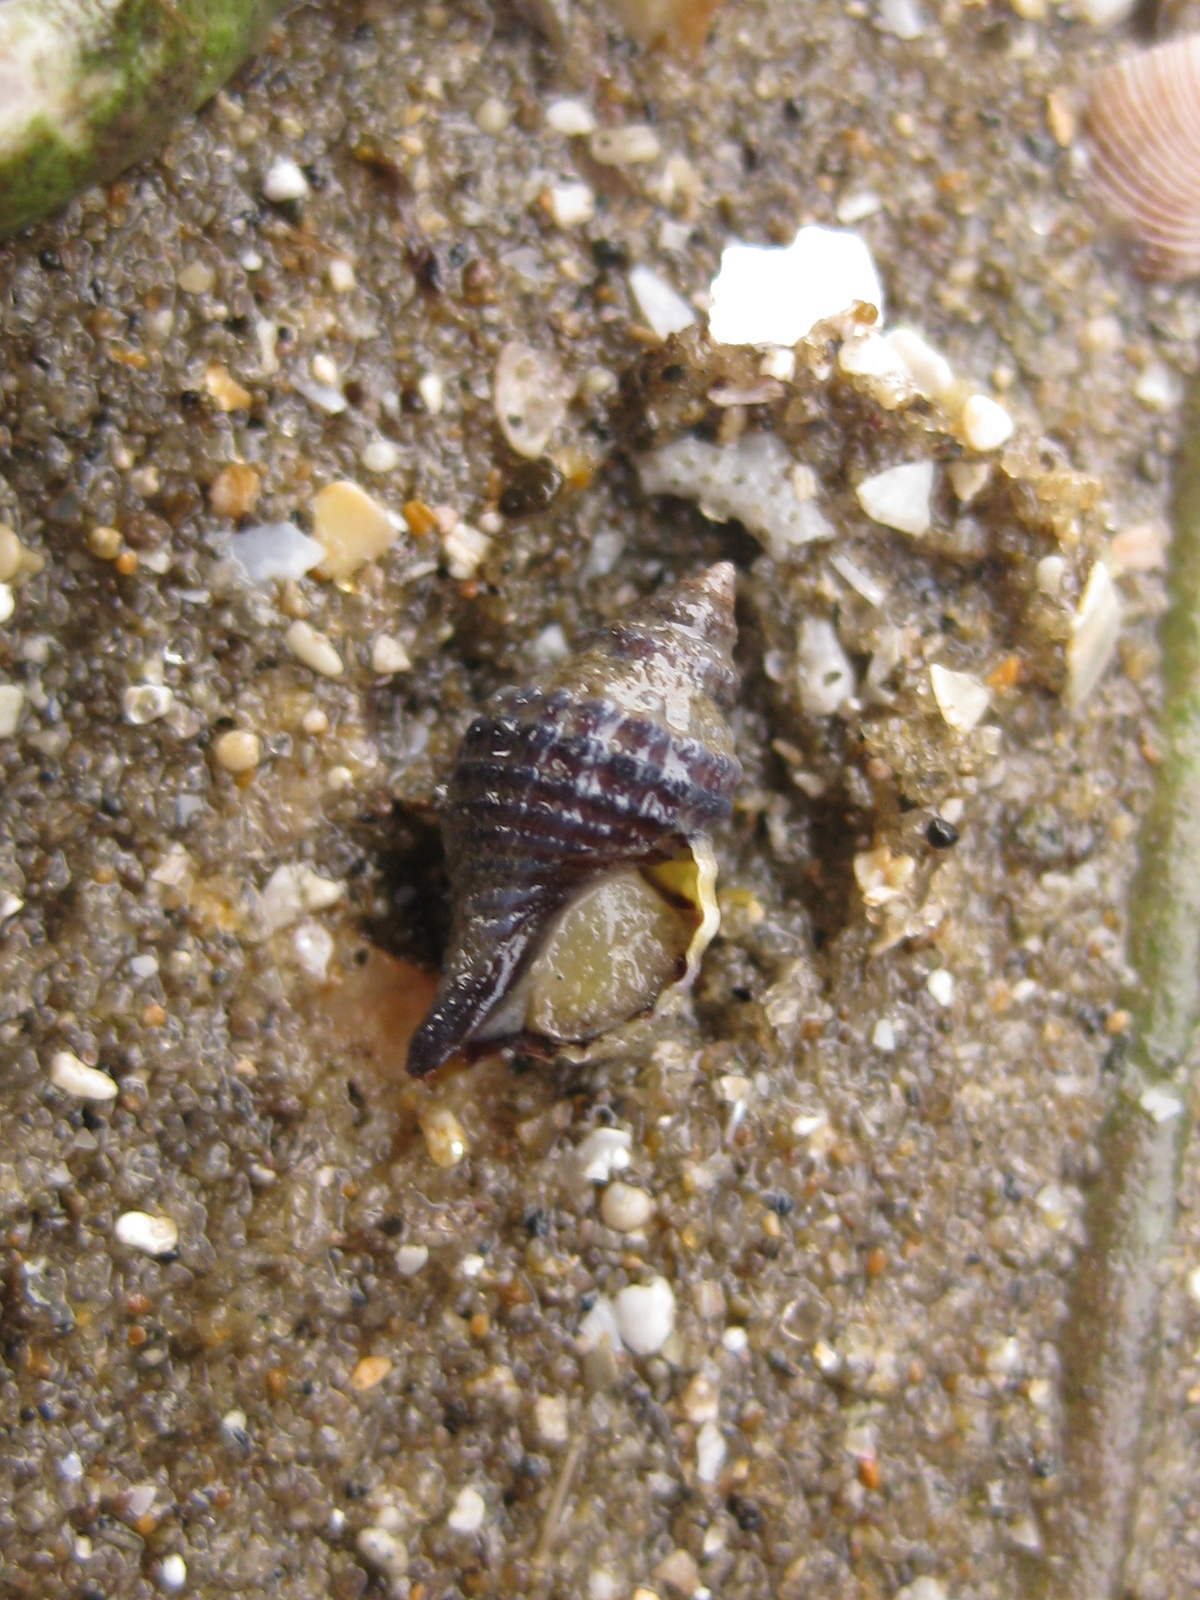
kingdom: Animalia
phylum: Mollusca
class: Gastropoda
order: Neogastropoda
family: Muricidae
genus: Xymene
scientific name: Xymene plebeius
